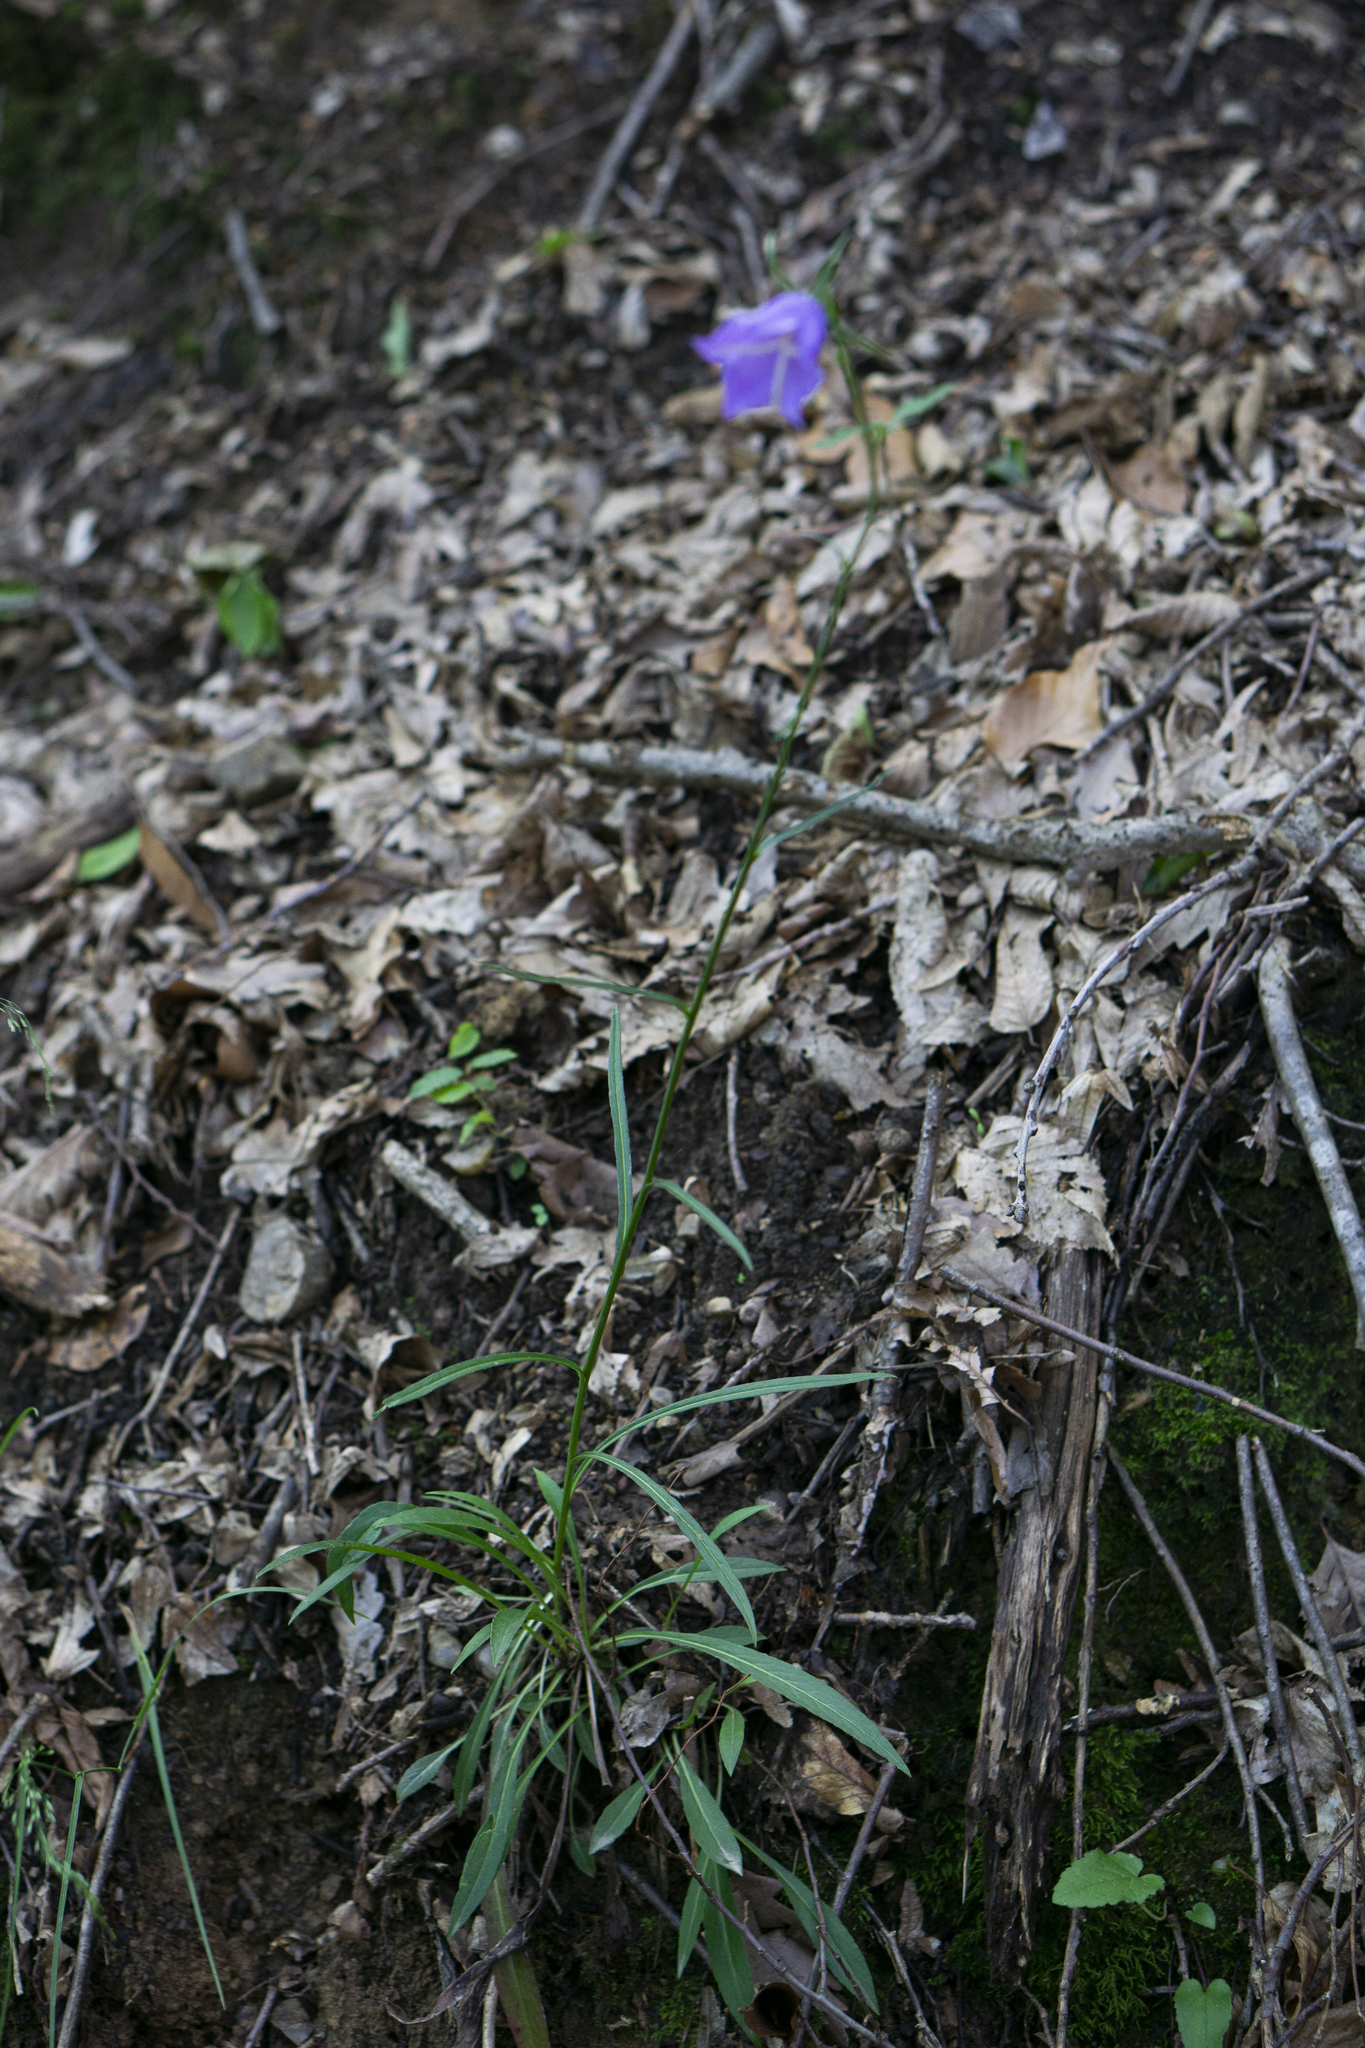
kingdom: Plantae
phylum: Tracheophyta
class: Magnoliopsida
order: Asterales
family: Campanulaceae
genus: Campanula
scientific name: Campanula persicifolia
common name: Peach-leaved bellflower
